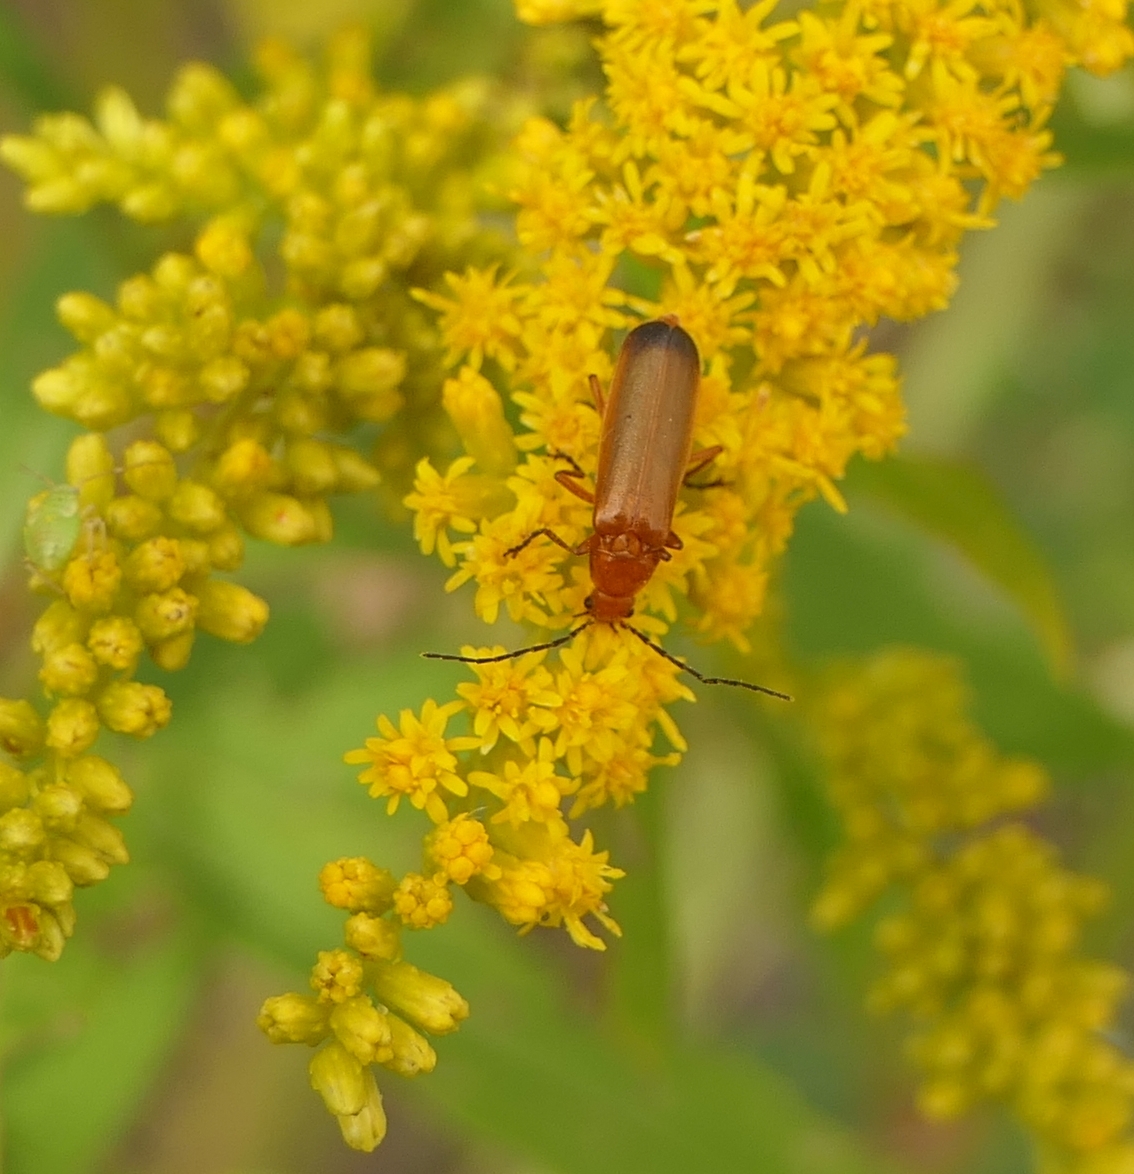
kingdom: Animalia
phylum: Arthropoda
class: Insecta
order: Coleoptera
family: Cantharidae
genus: Rhagonycha
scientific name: Rhagonycha fulva
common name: Common red soldier beetle
